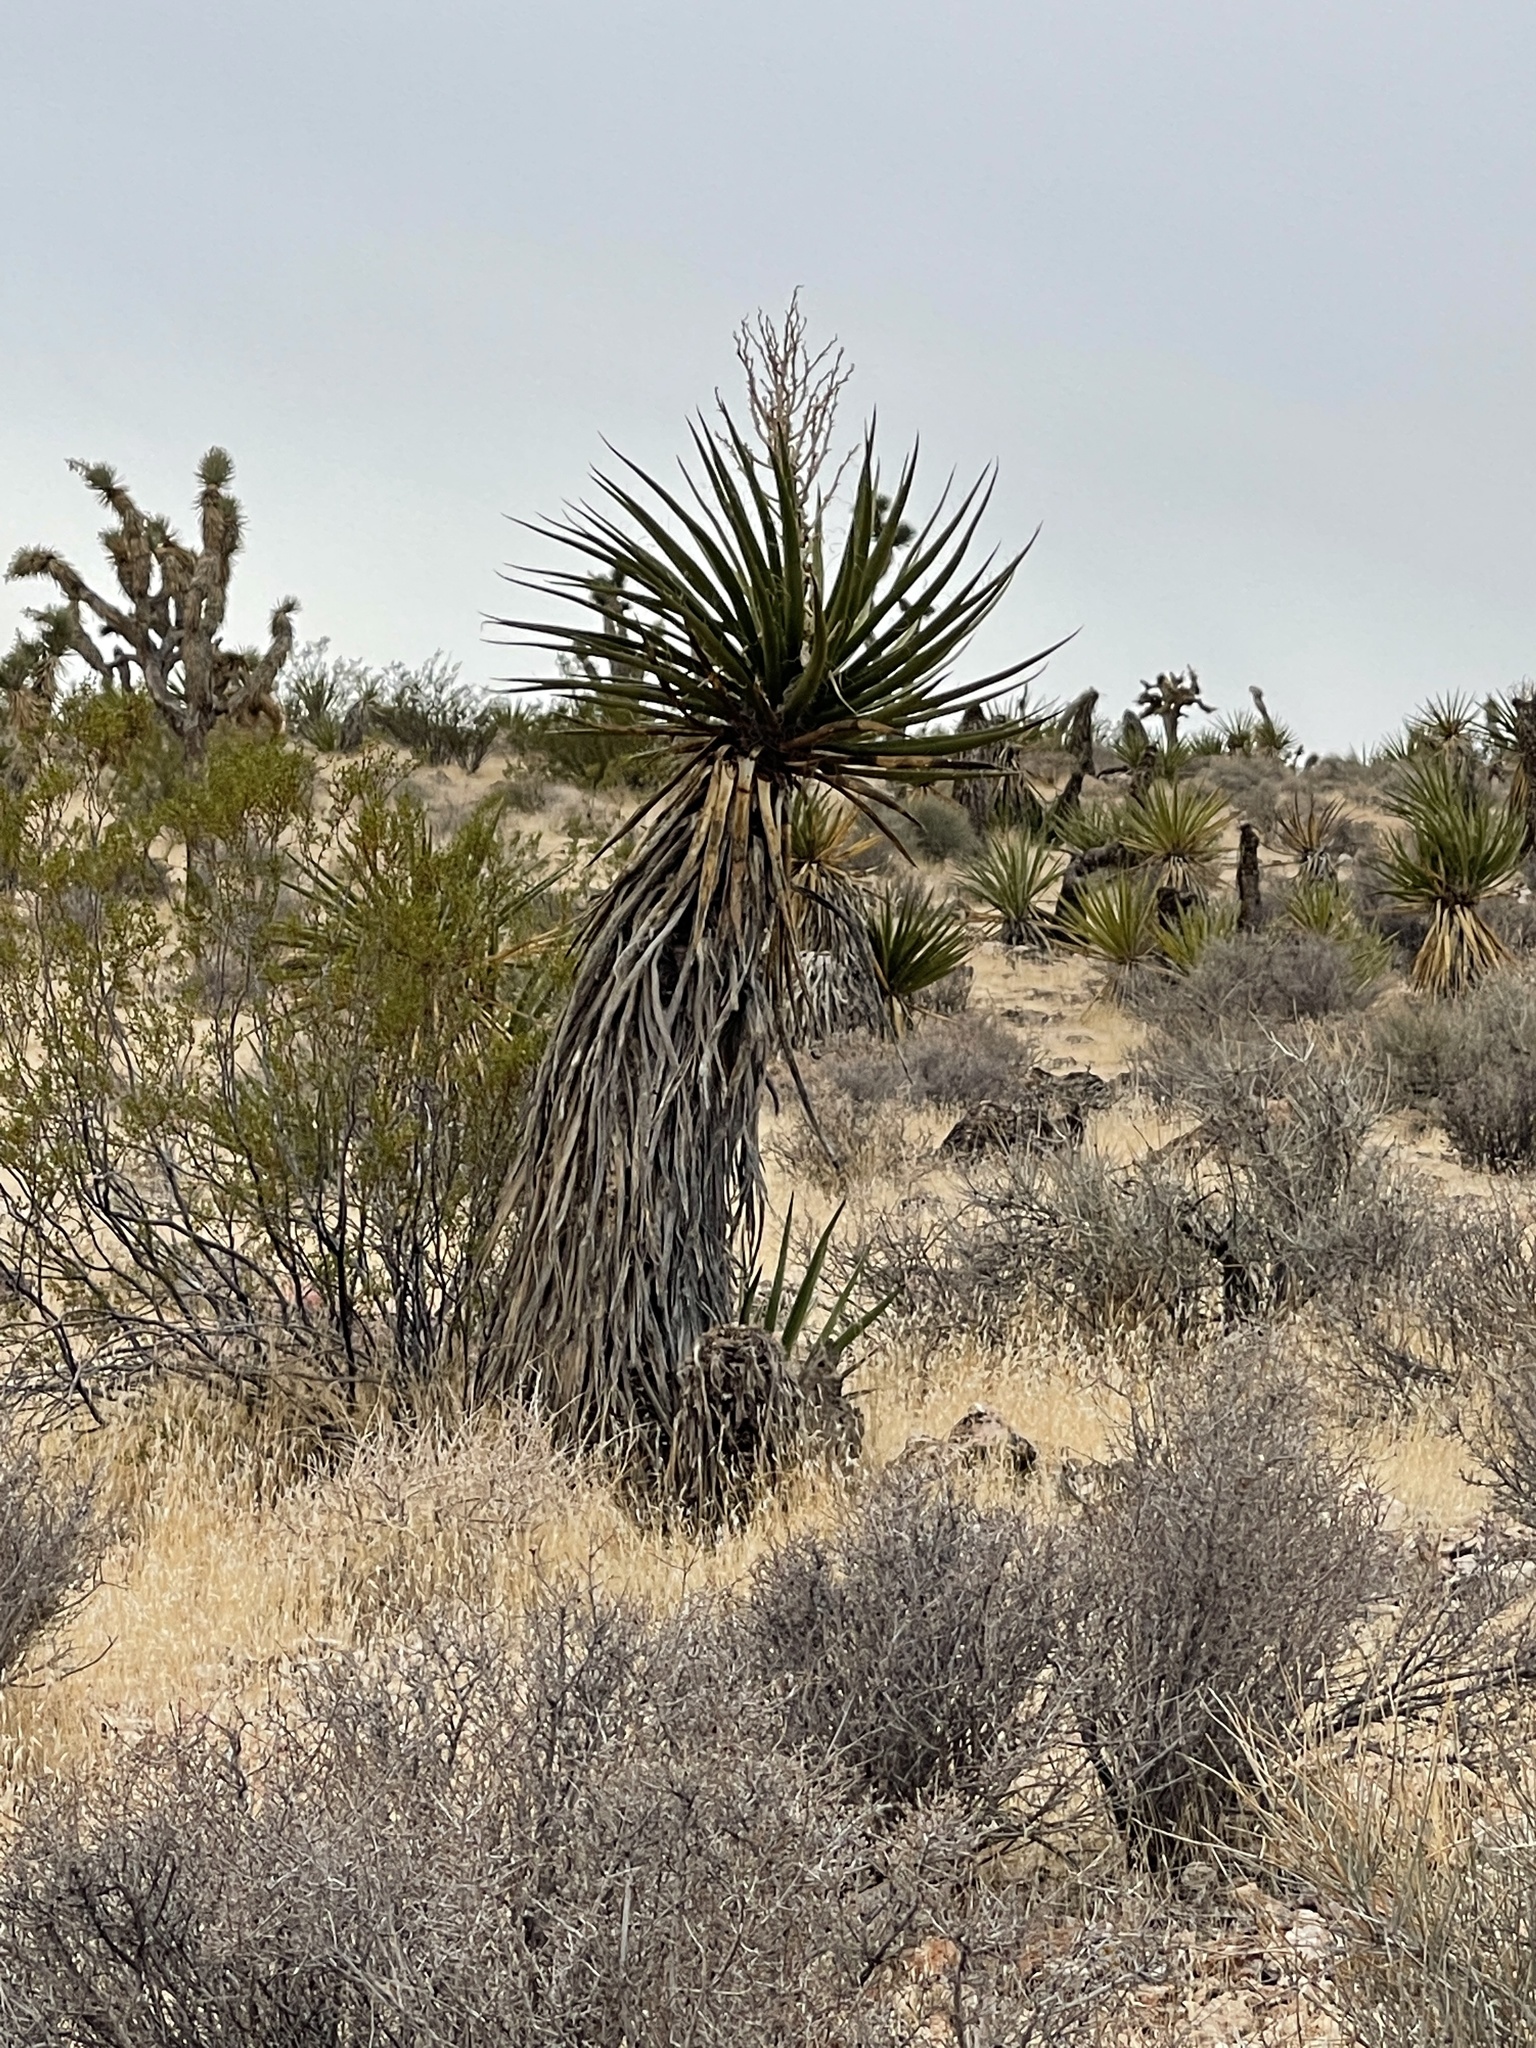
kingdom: Plantae
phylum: Tracheophyta
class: Liliopsida
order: Asparagales
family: Asparagaceae
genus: Yucca
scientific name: Yucca schidigera
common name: Mojave yucca
